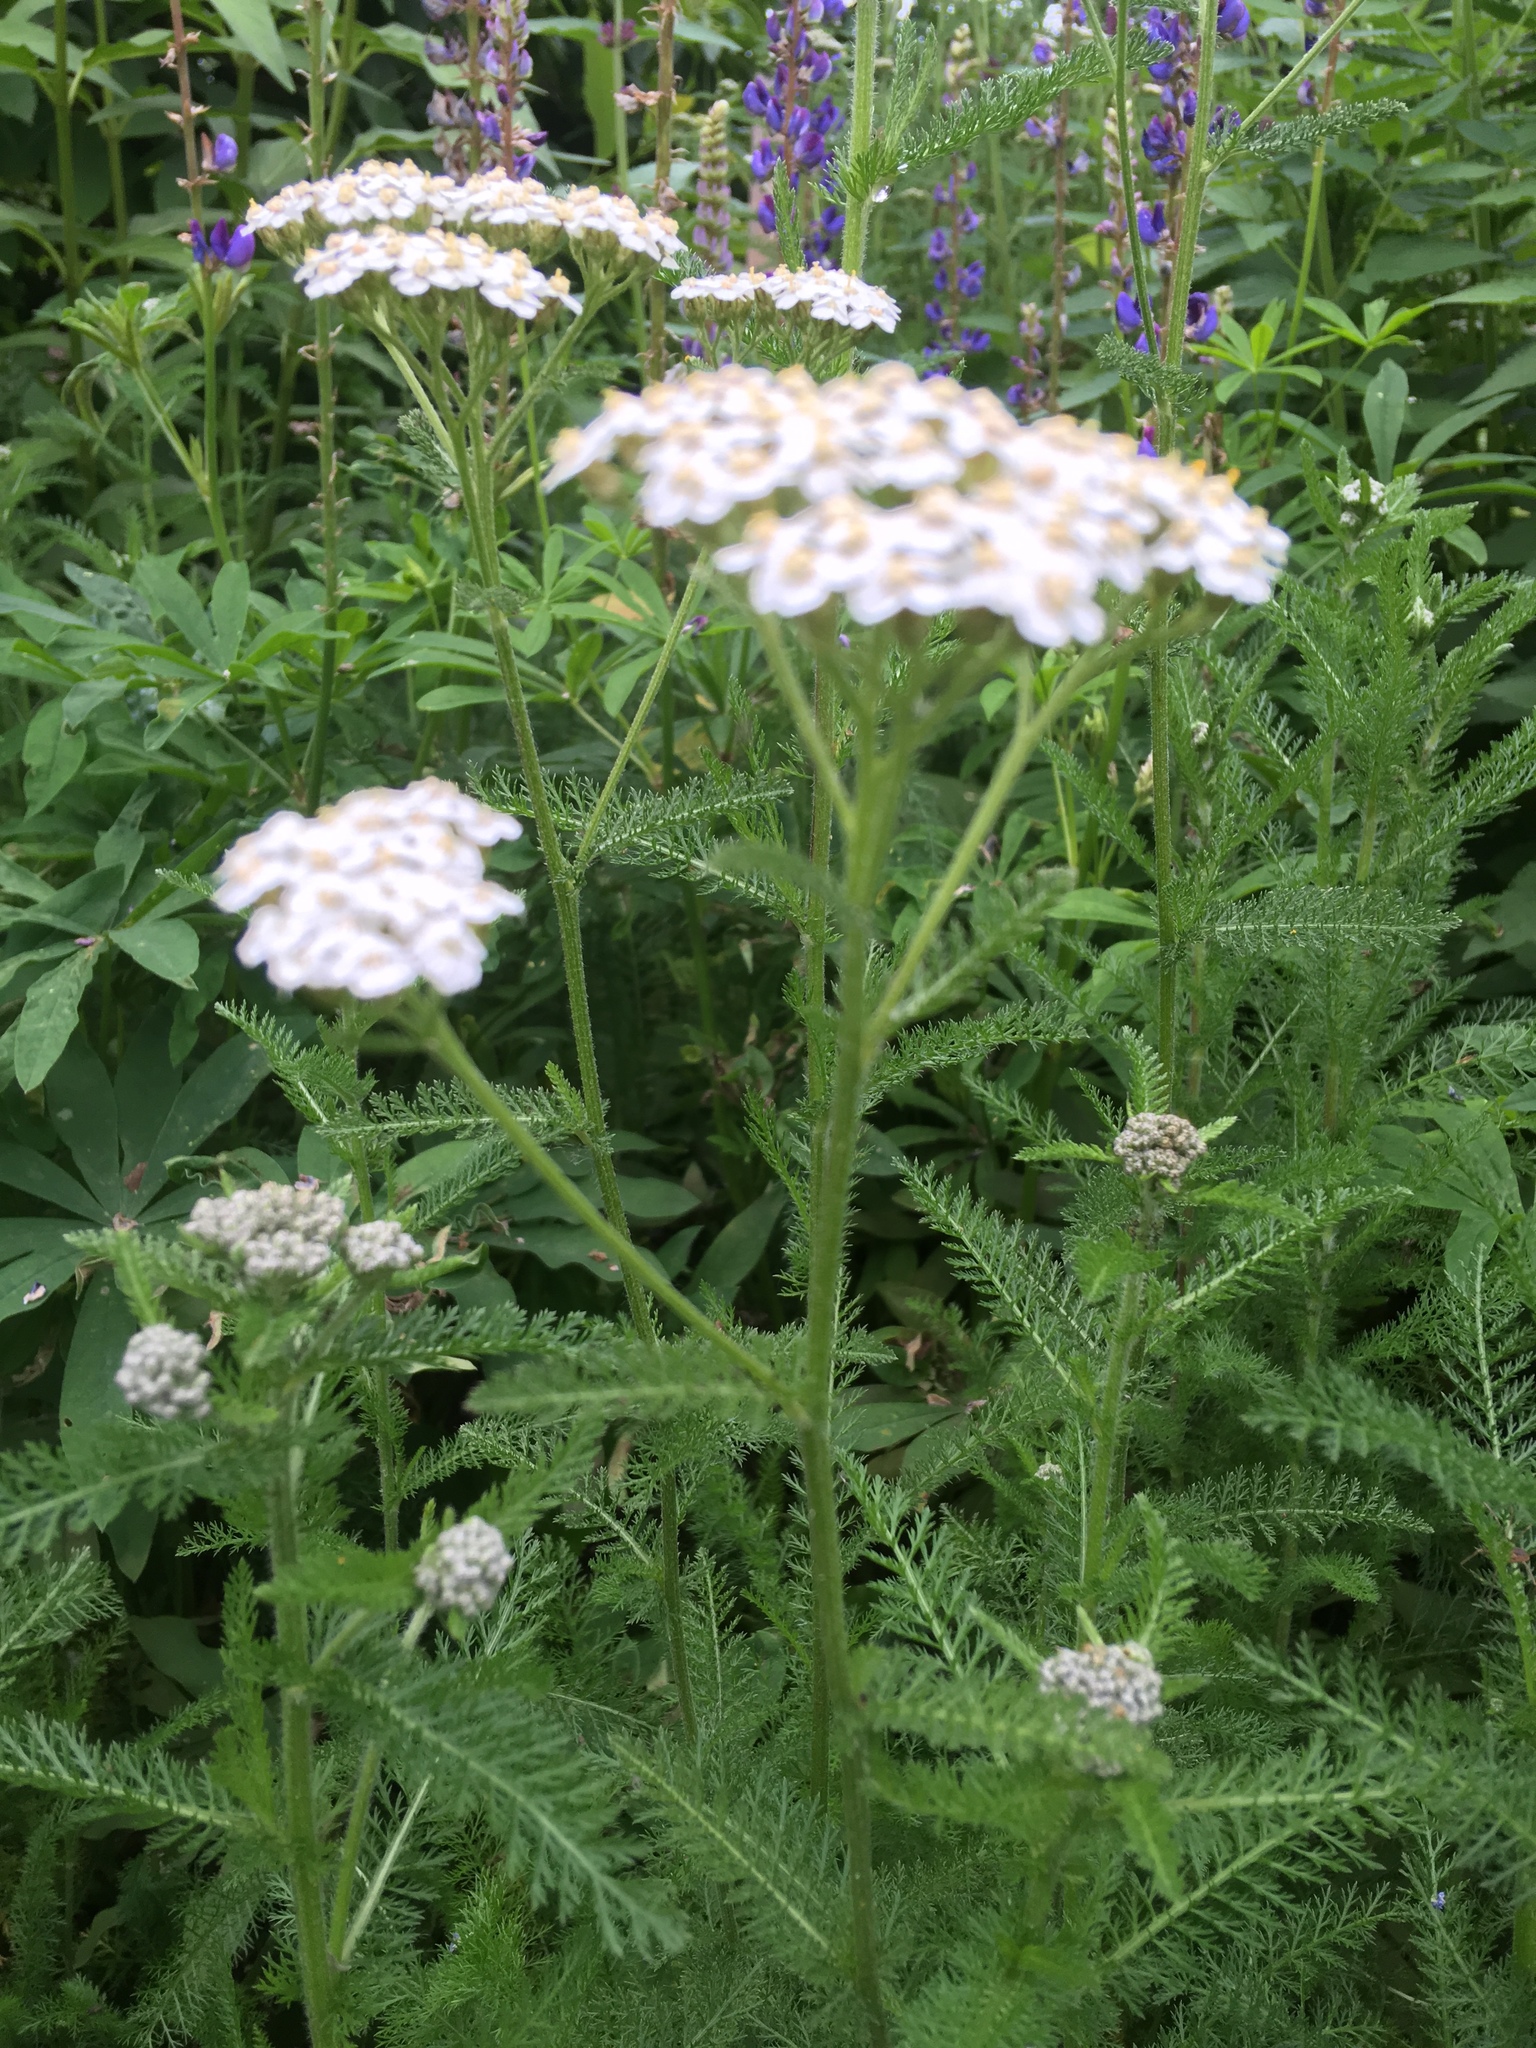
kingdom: Plantae
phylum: Tracheophyta
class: Magnoliopsida
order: Asterales
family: Asteraceae
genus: Achillea
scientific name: Achillea millefolium
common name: Yarrow
